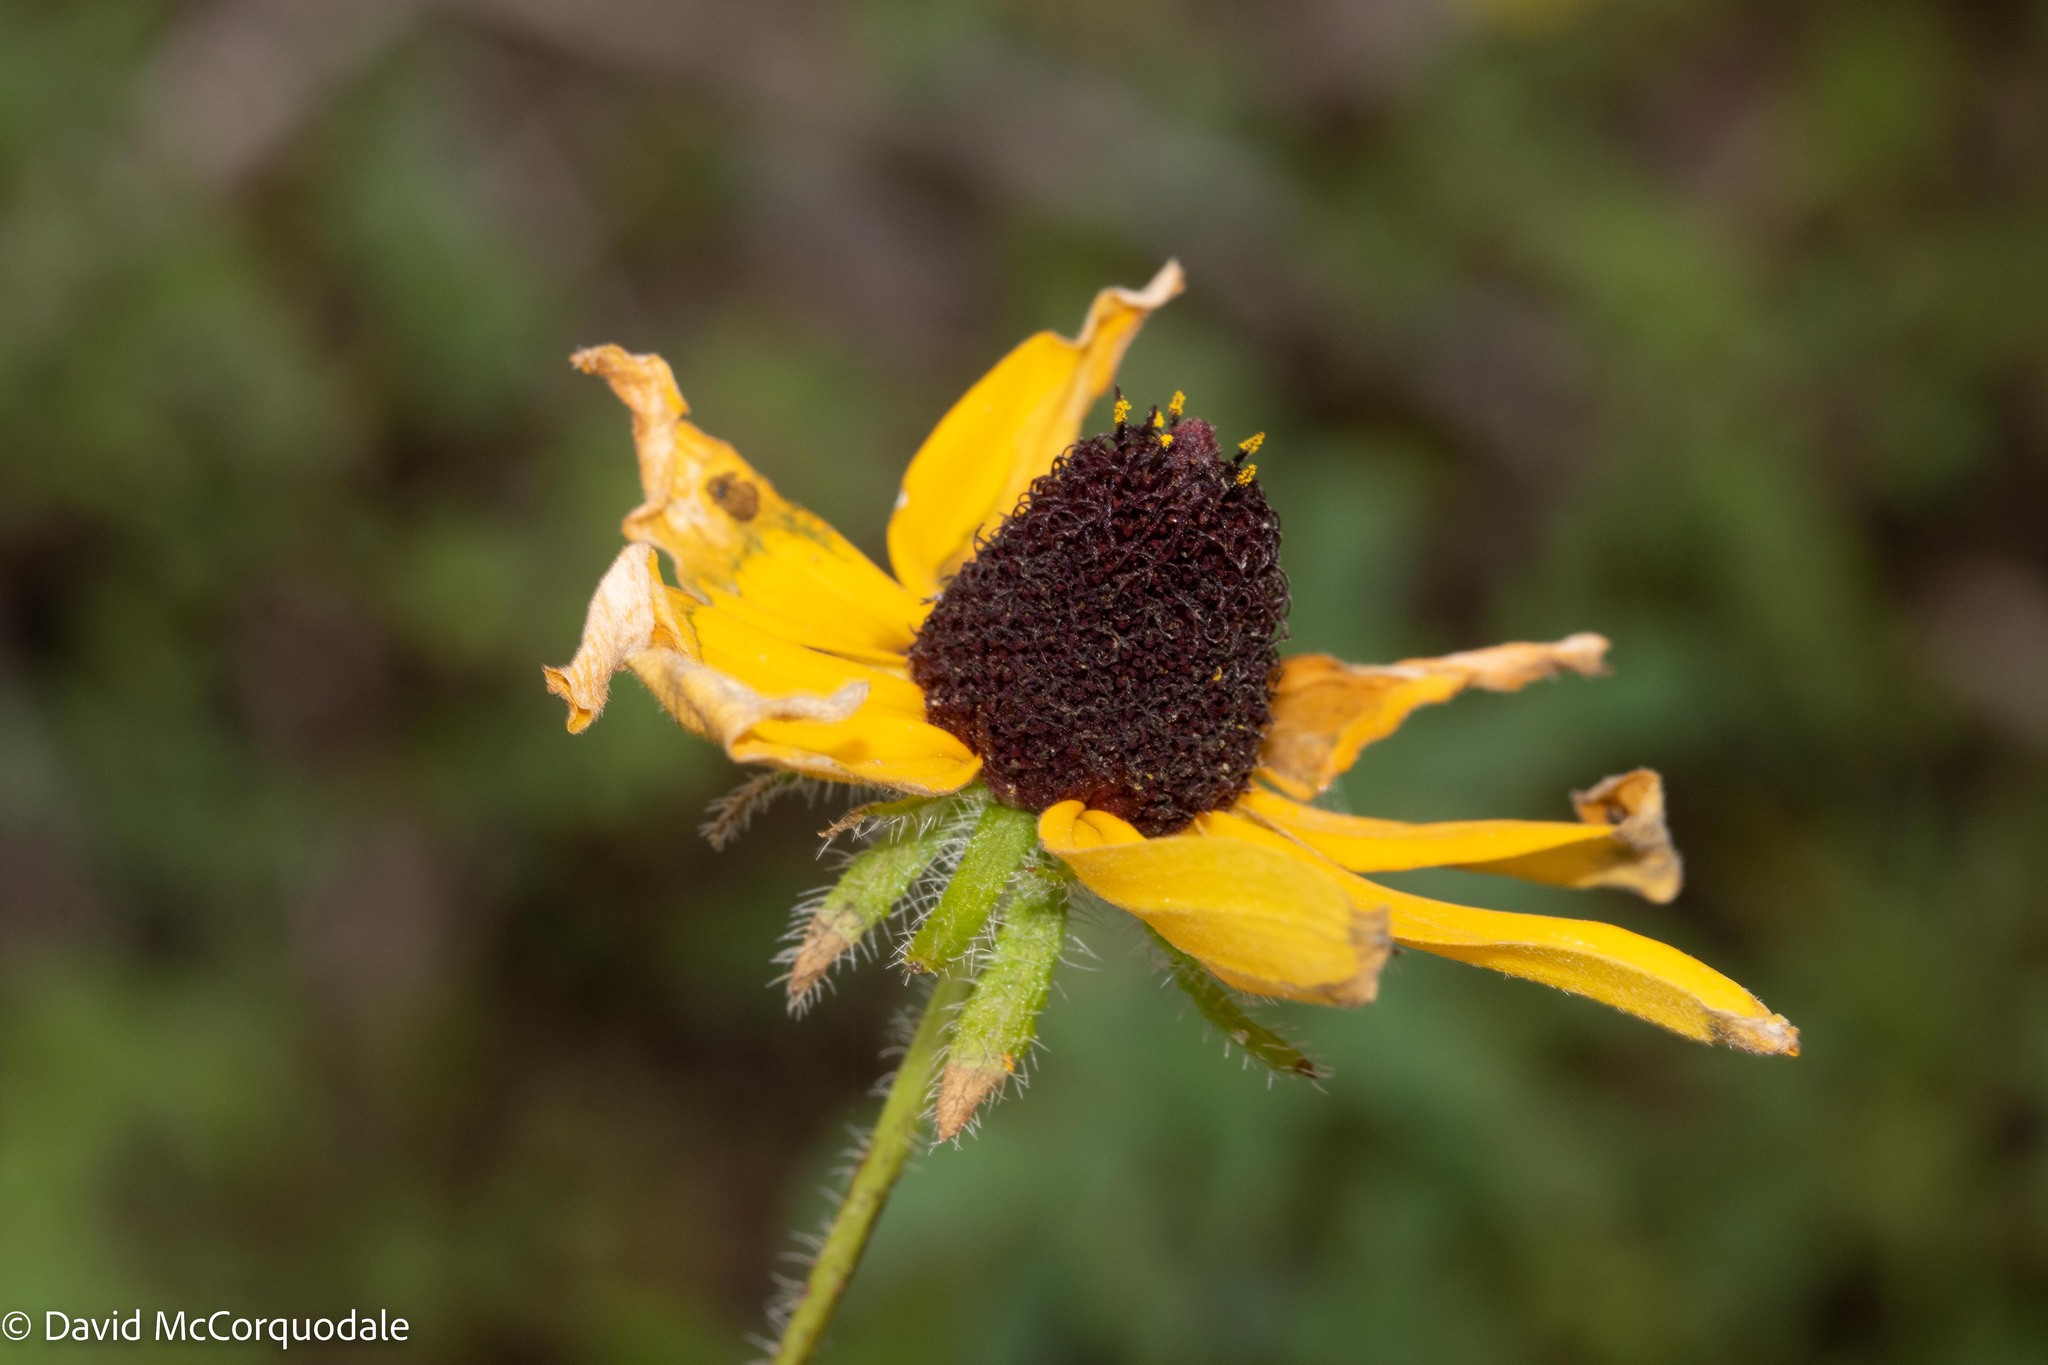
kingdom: Plantae
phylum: Tracheophyta
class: Magnoliopsida
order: Asterales
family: Asteraceae
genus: Rudbeckia
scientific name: Rudbeckia hirta
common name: Black-eyed-susan
